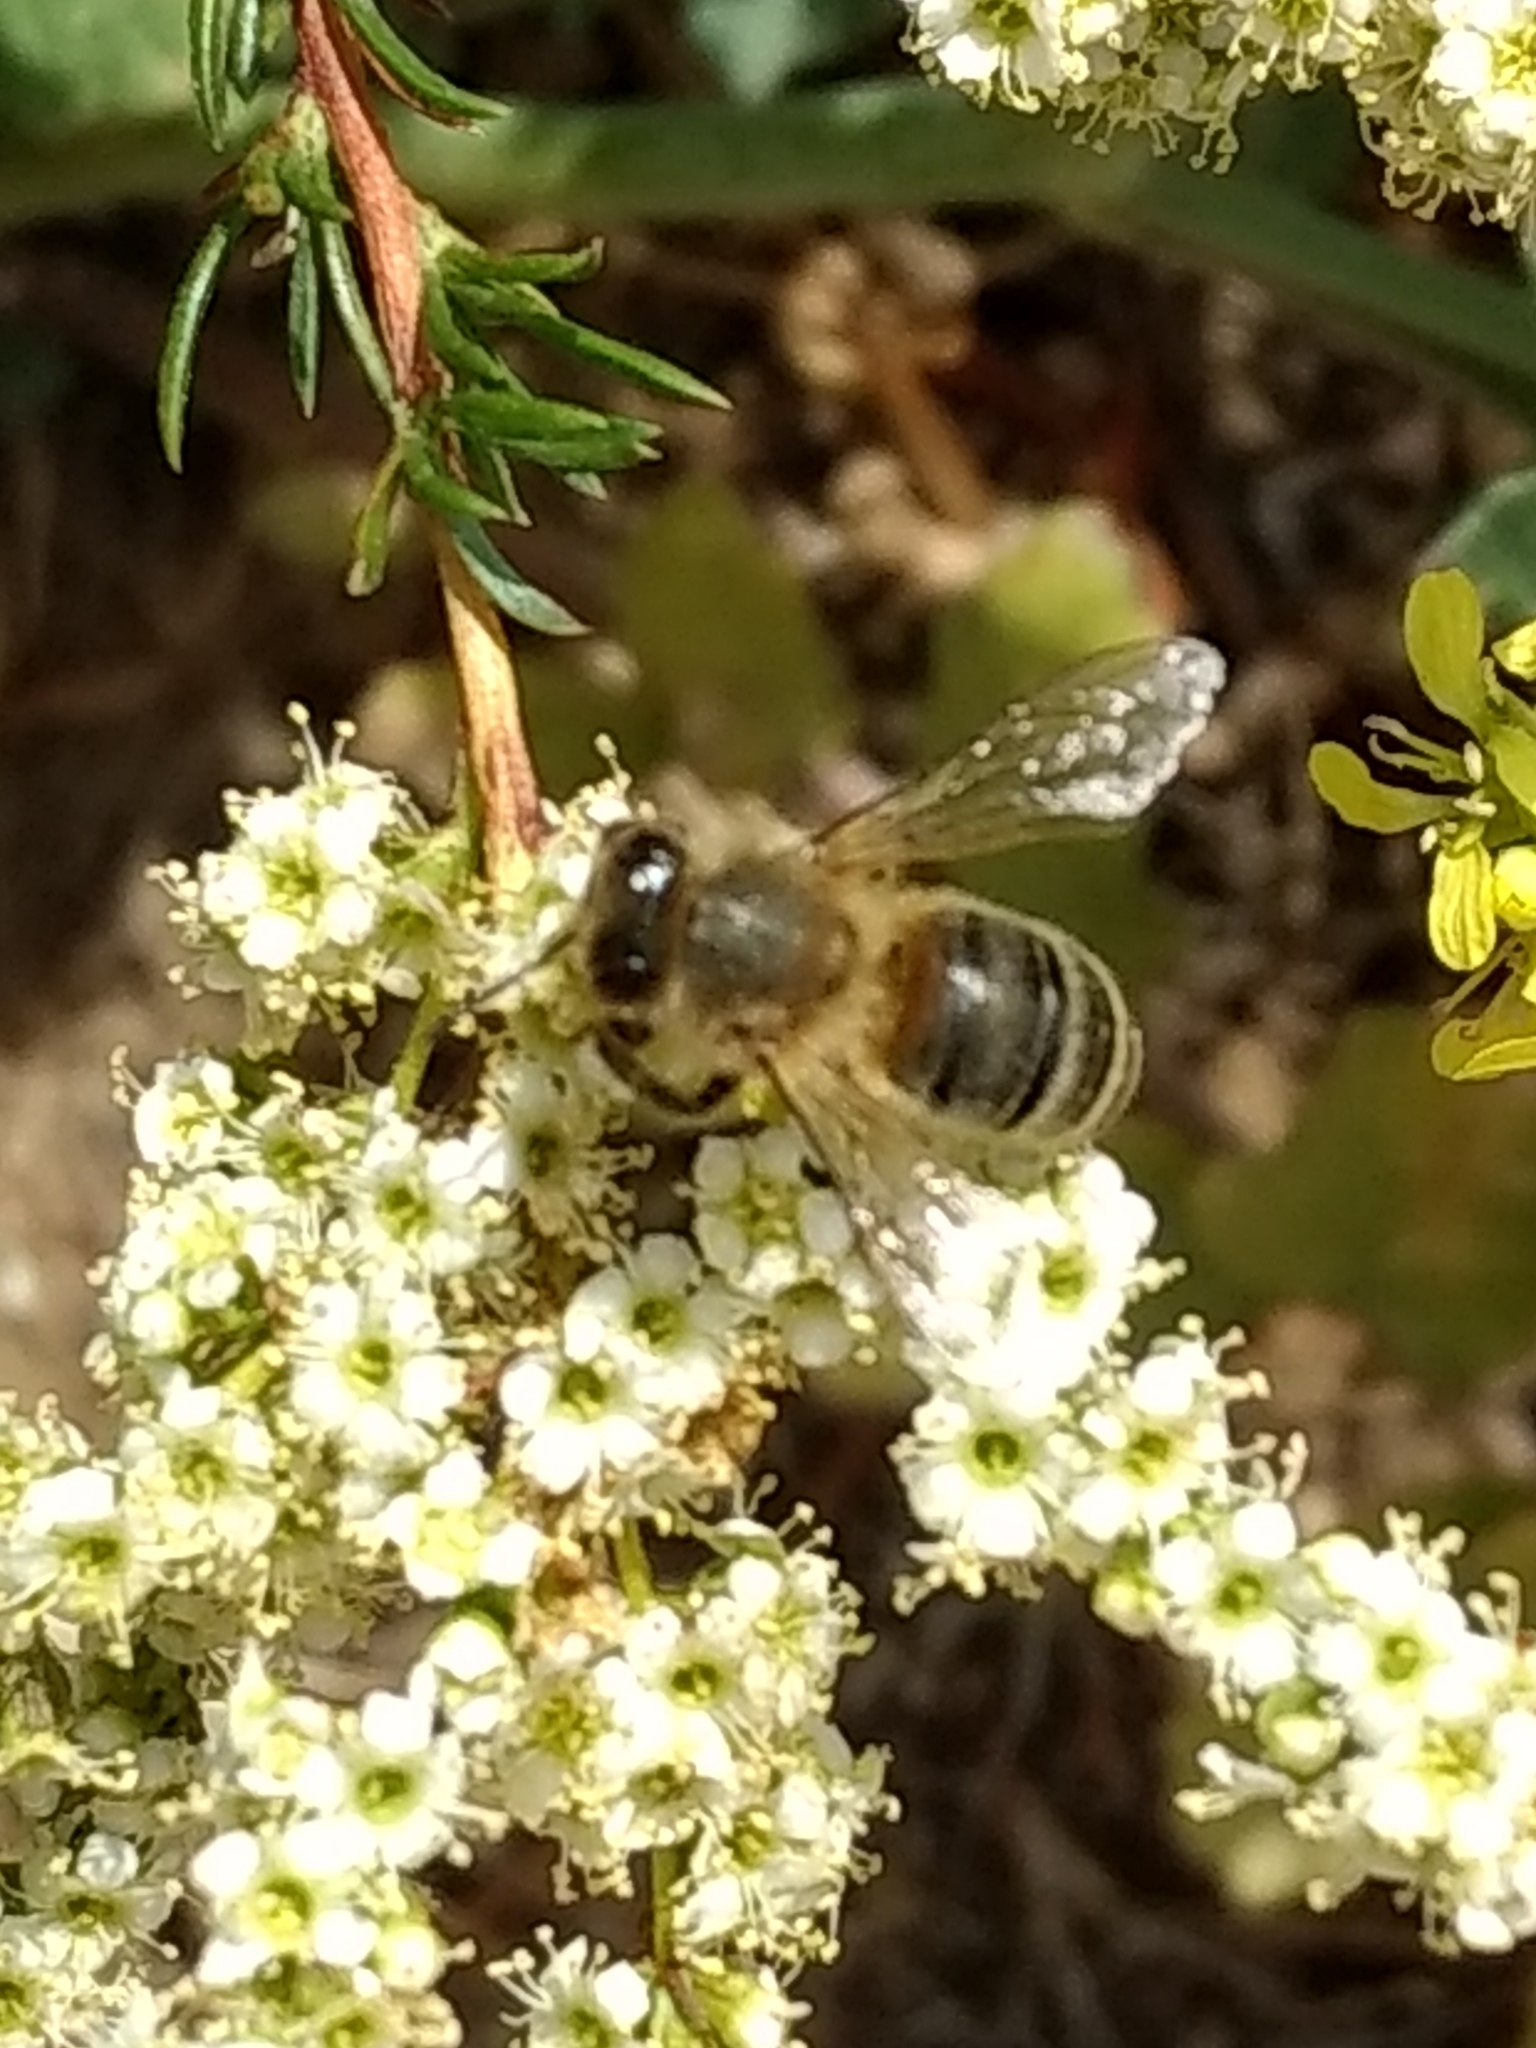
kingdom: Animalia
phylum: Arthropoda
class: Insecta
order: Hymenoptera
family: Apidae
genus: Apis
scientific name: Apis mellifera
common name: Honey bee
